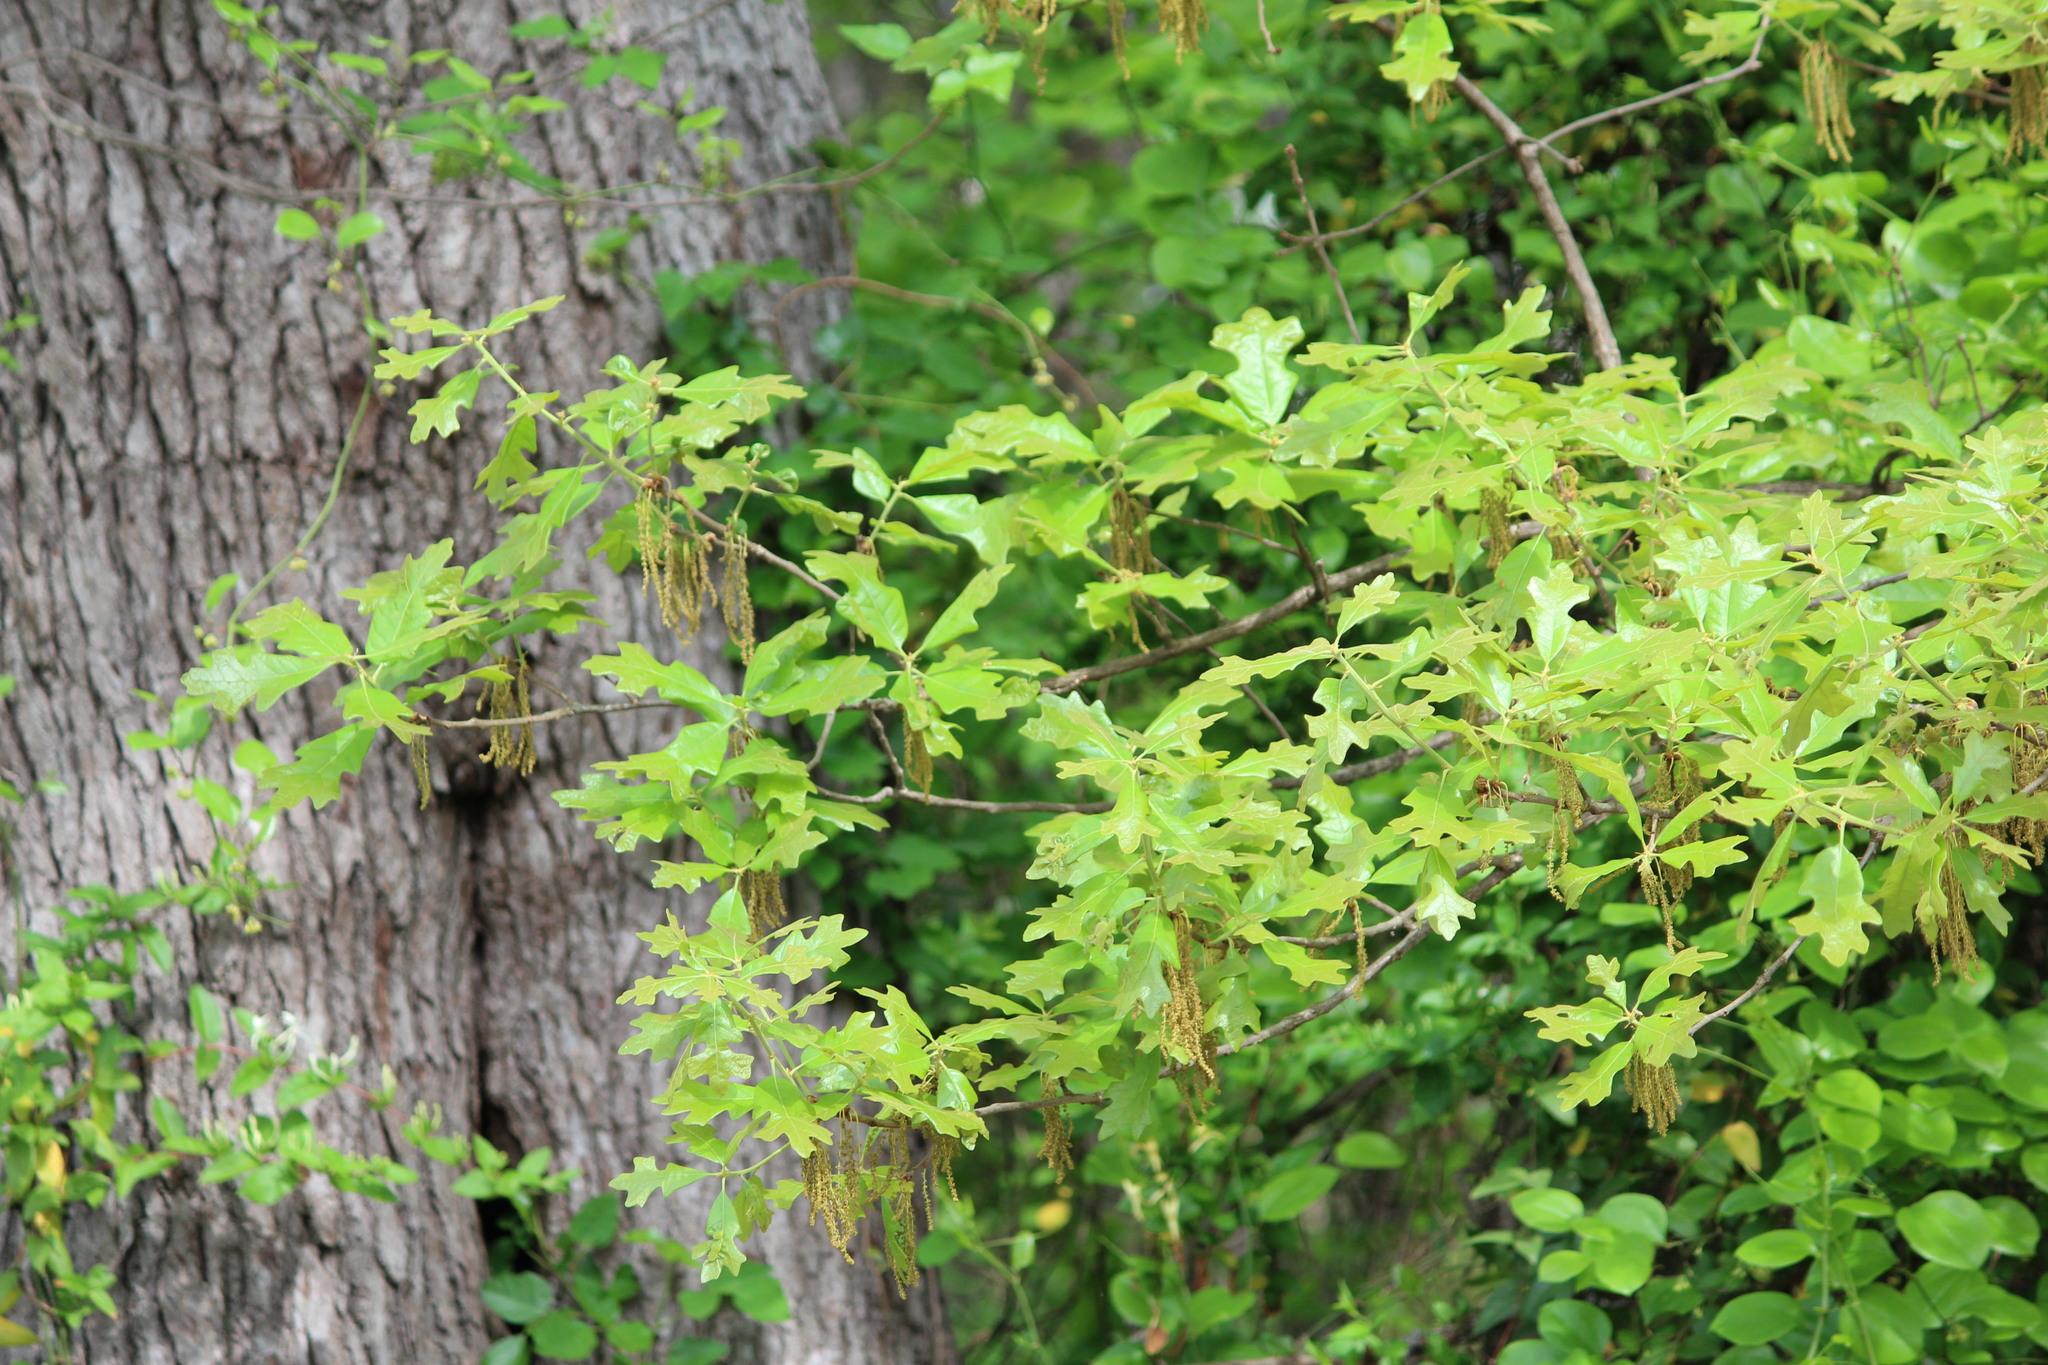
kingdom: Plantae
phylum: Tracheophyta
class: Magnoliopsida
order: Fagales
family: Fagaceae
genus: Quercus
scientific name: Quercus stellata
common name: Post oak
